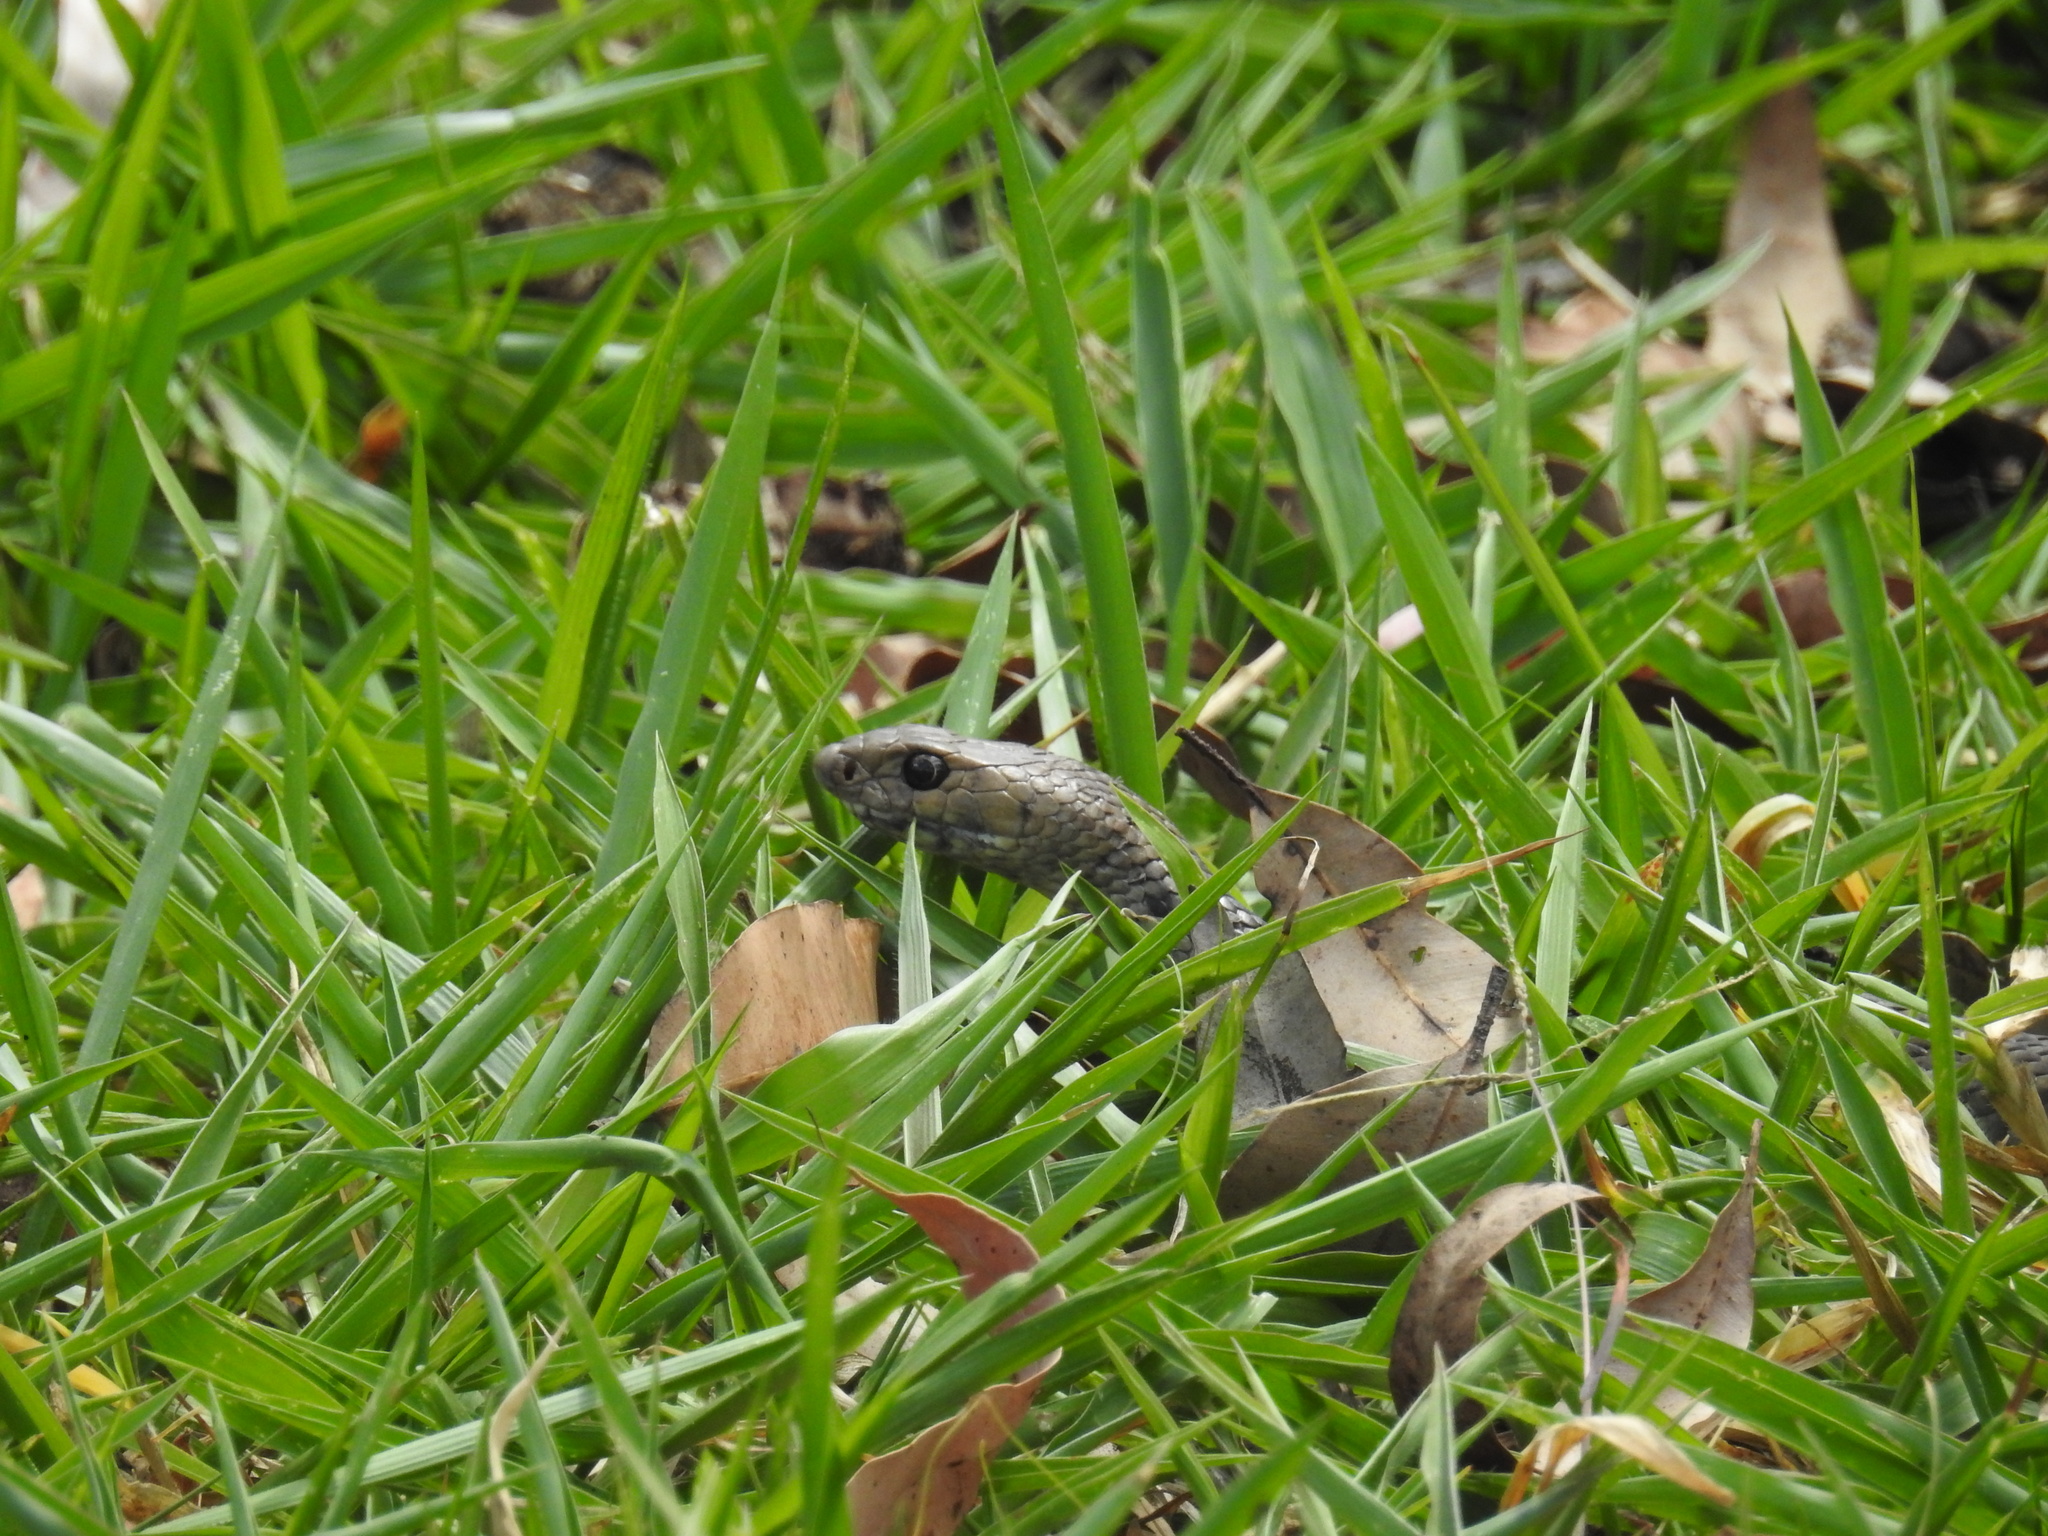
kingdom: Animalia
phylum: Chordata
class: Squamata
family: Elapidae
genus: Pseudonaja
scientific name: Pseudonaja textilis
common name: Eastern brown snake
